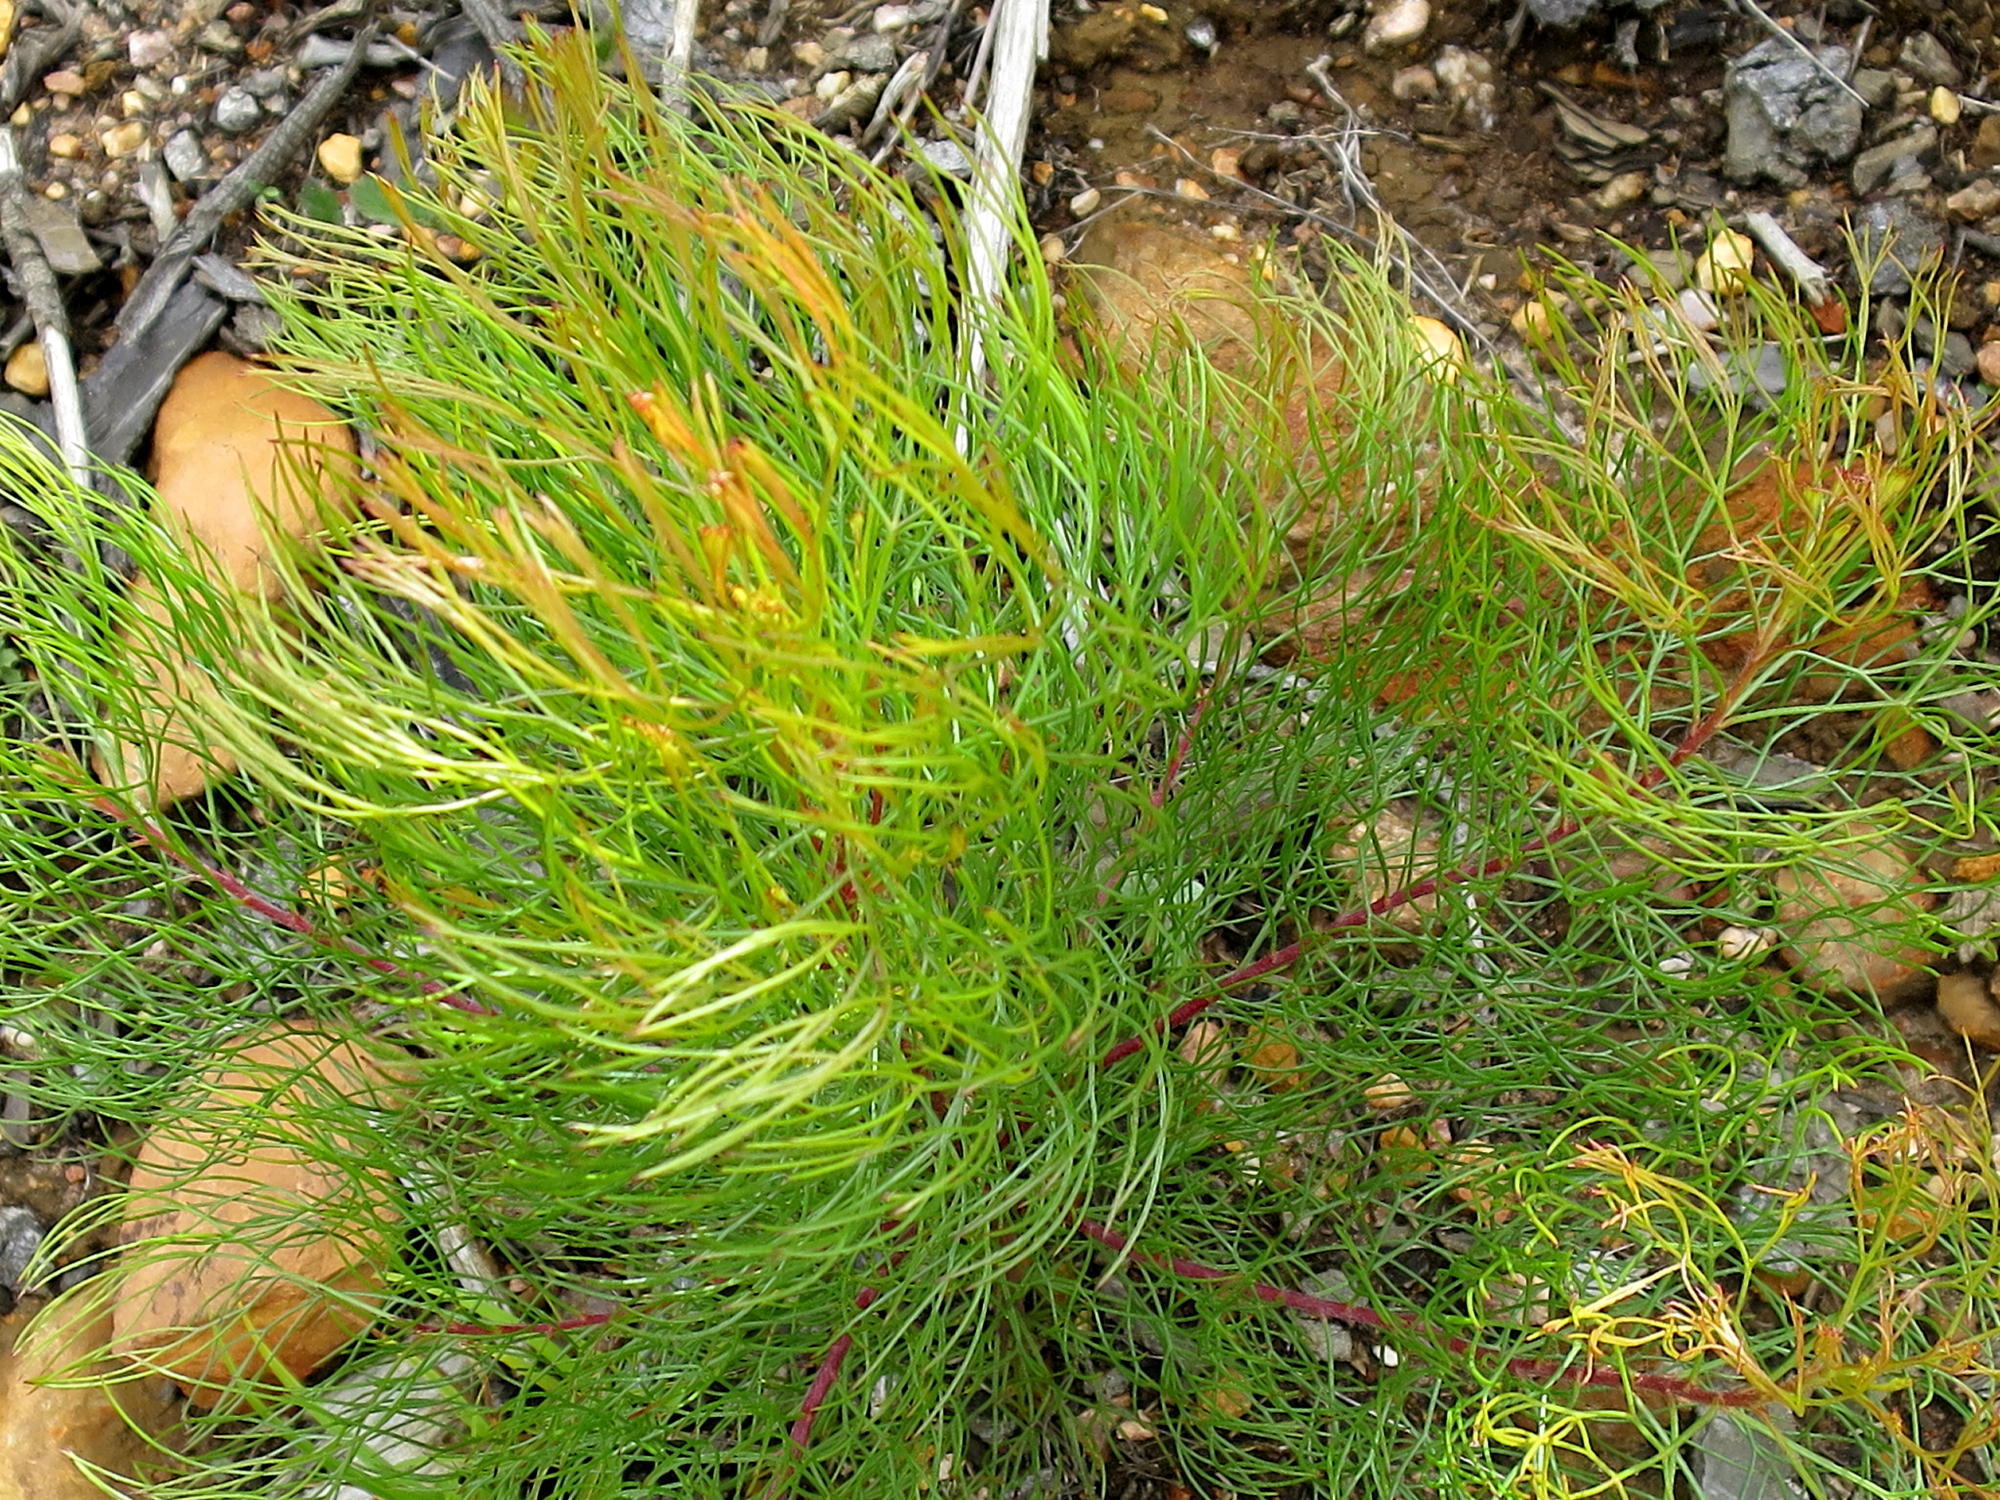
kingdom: Plantae
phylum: Tracheophyta
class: Magnoliopsida
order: Proteales
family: Proteaceae
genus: Serruria
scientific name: Serruria fasciflora
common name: Common pin spiderhead
